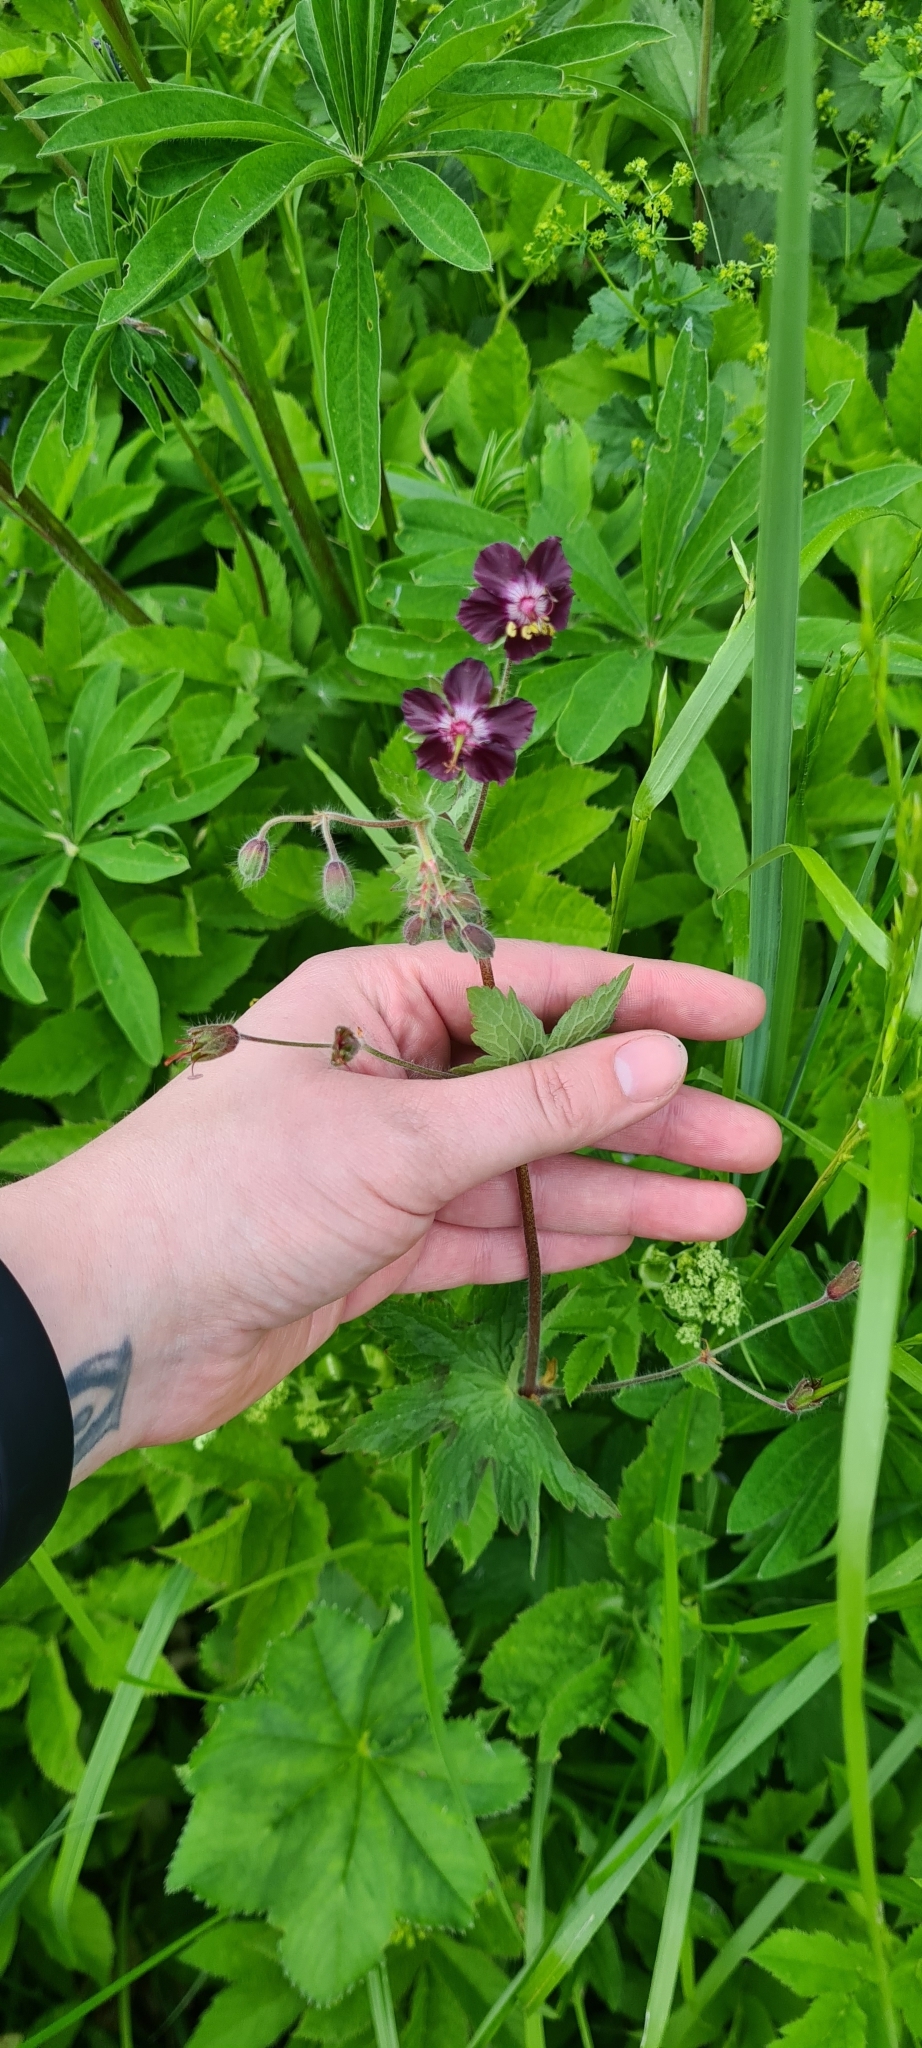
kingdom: Plantae
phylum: Tracheophyta
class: Magnoliopsida
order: Geraniales
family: Geraniaceae
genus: Geranium
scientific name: Geranium phaeum
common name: Dusky crane's-bill
